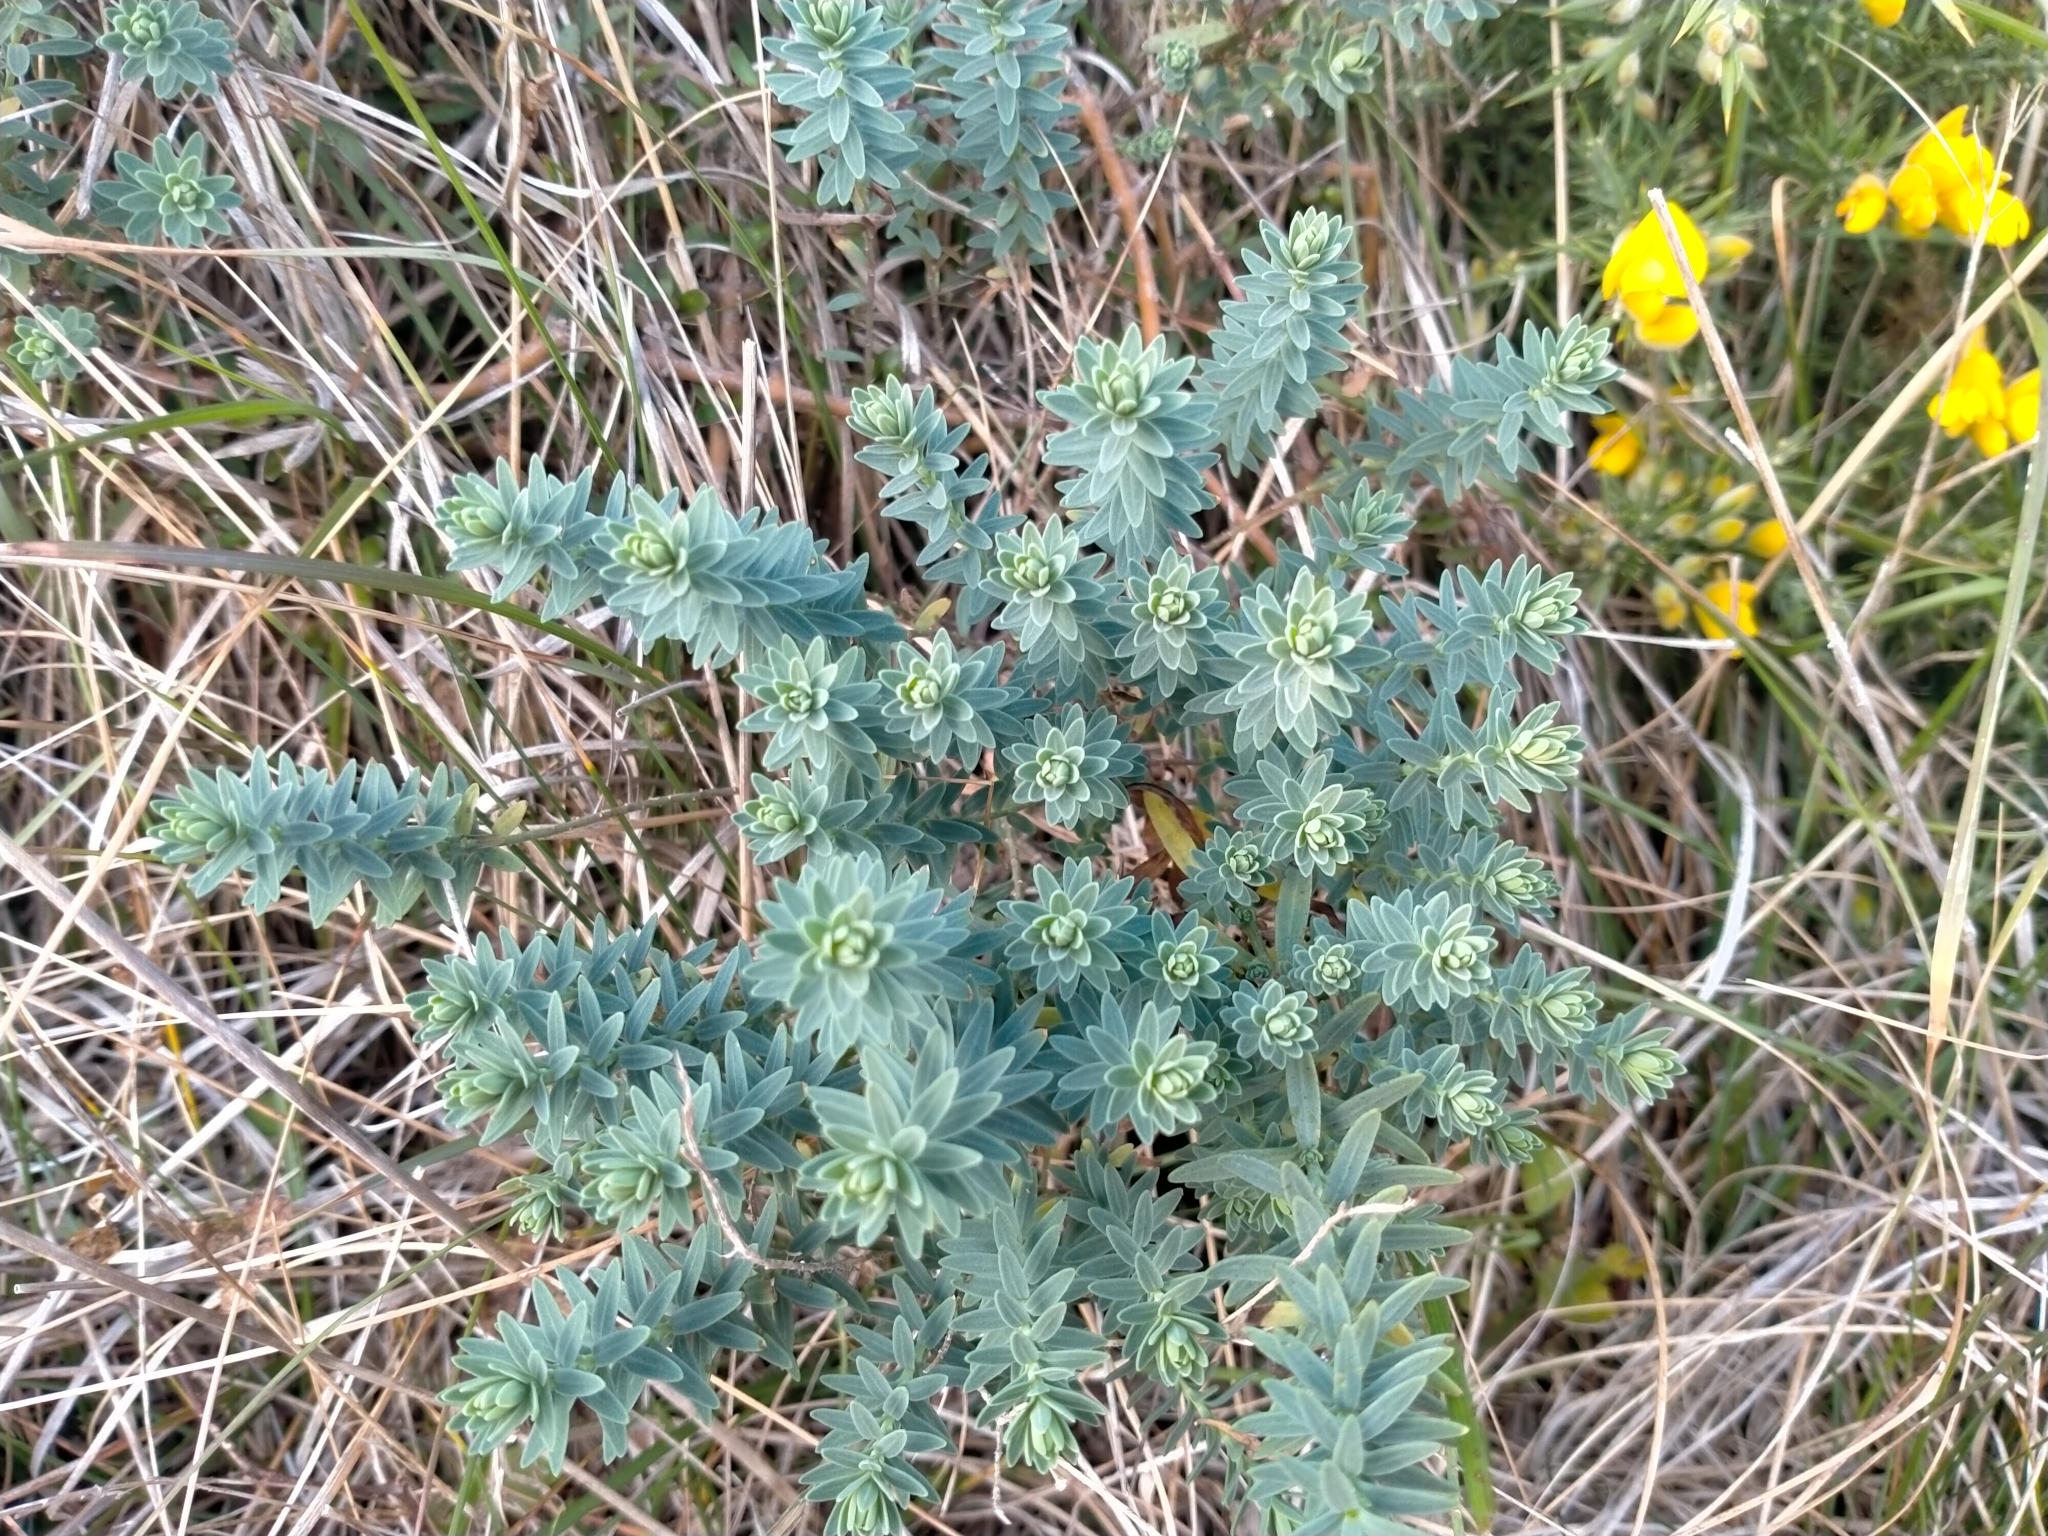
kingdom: Plantae
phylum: Tracheophyta
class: Magnoliopsida
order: Malpighiales
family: Linaceae
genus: Linum
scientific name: Linum monogynum
